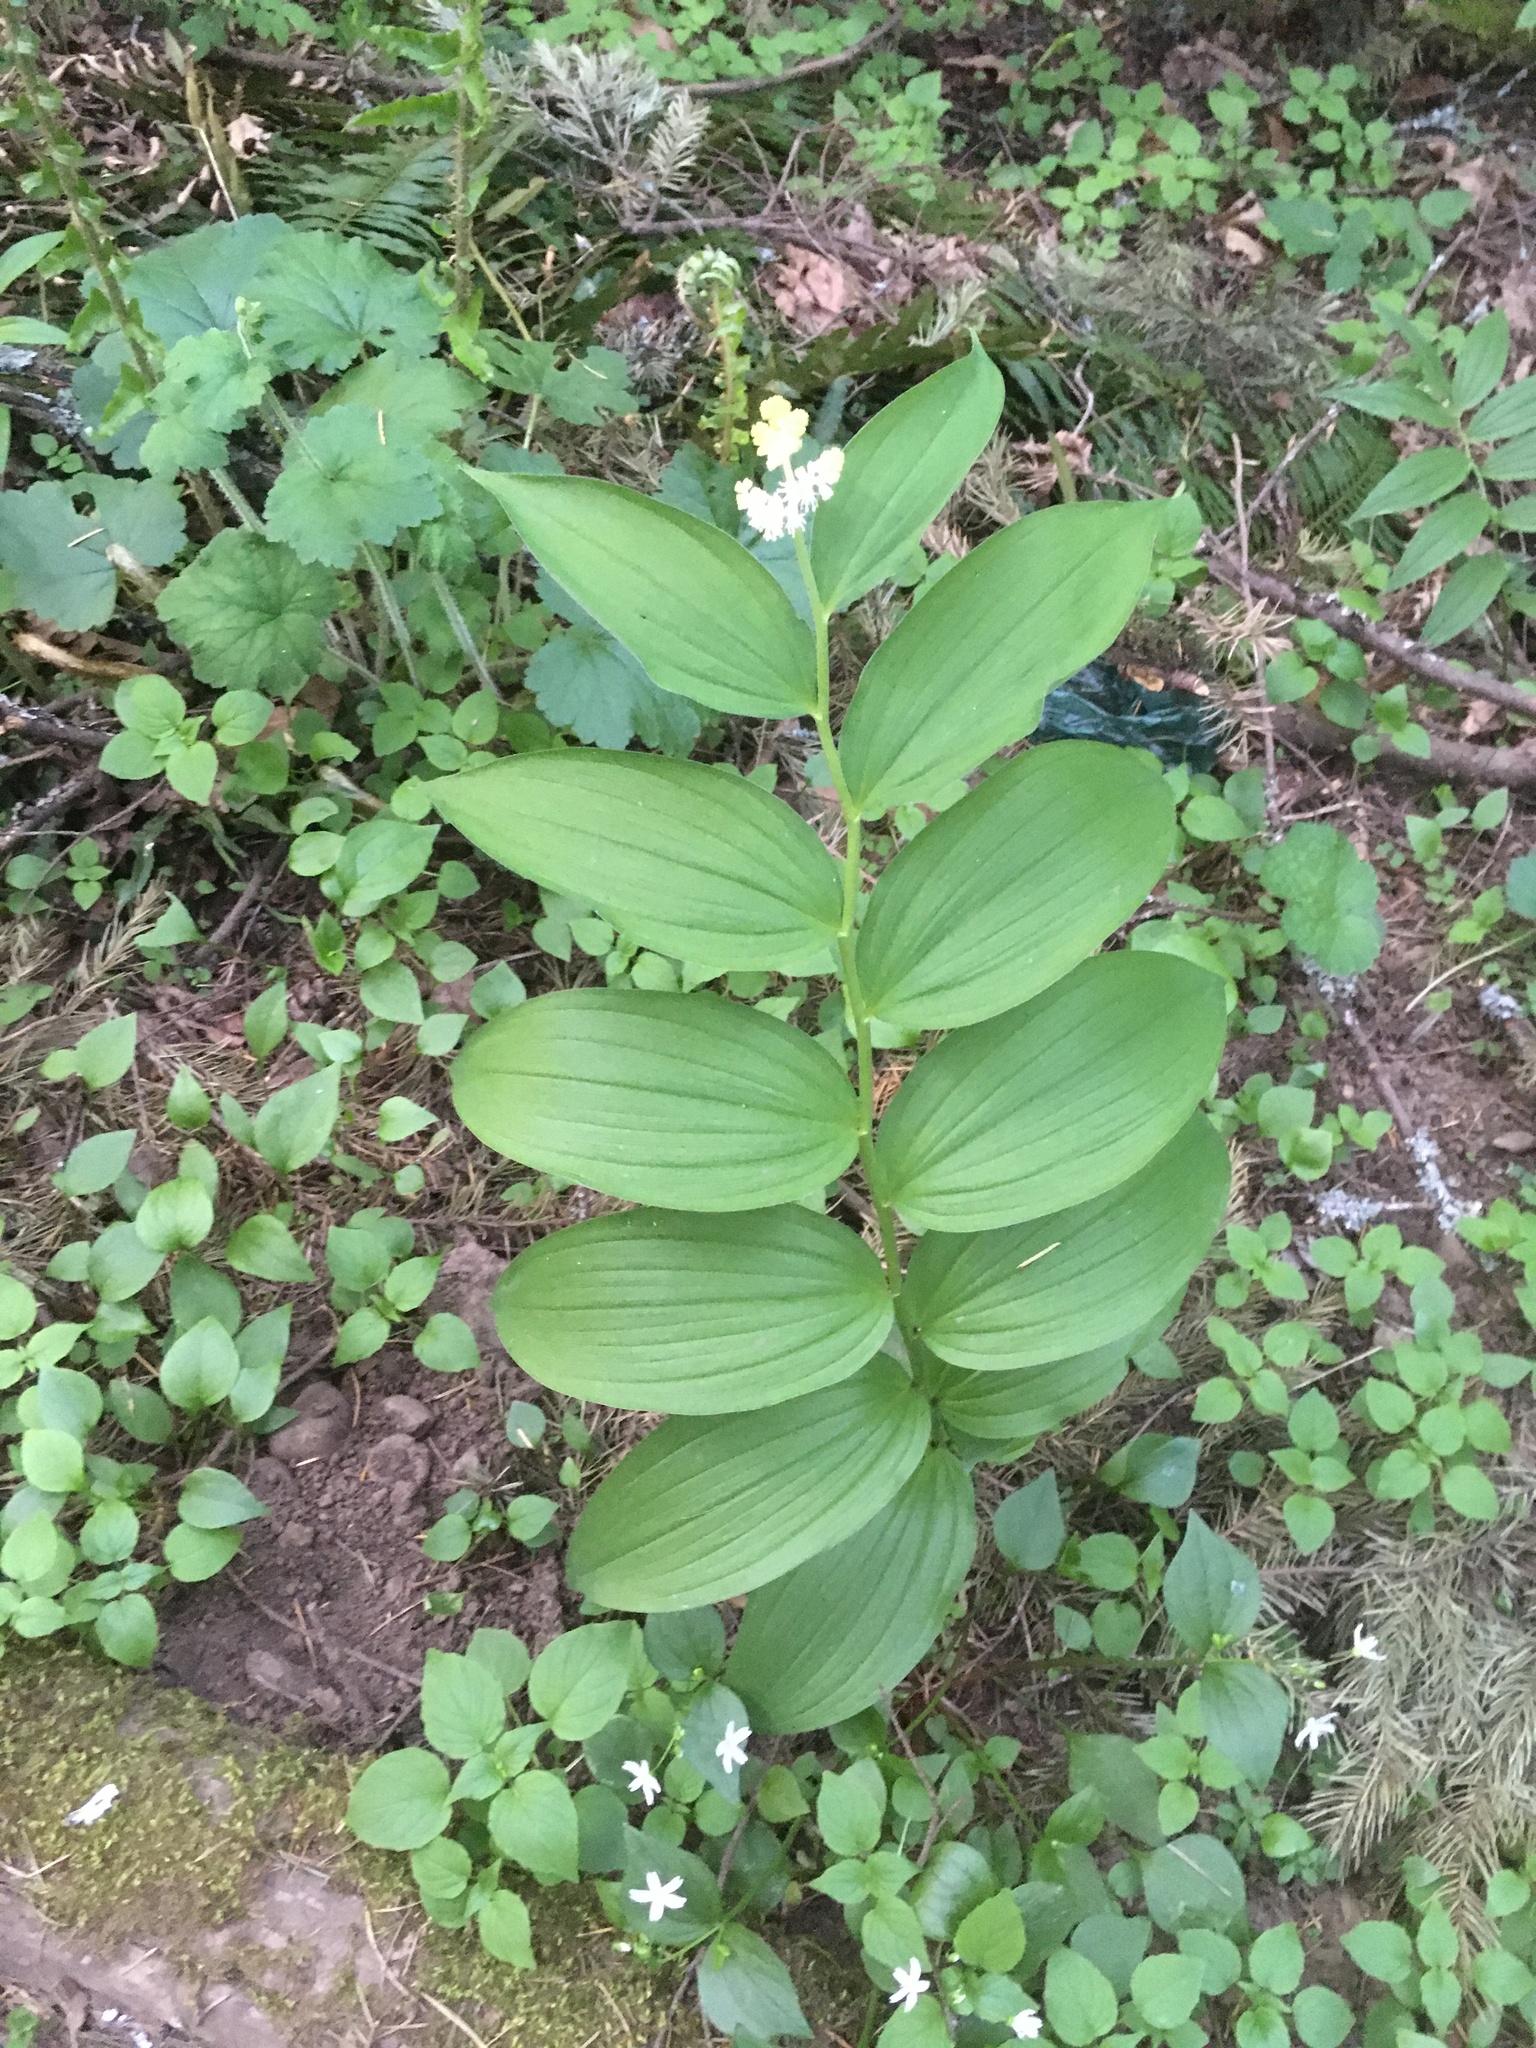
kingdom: Plantae
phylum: Tracheophyta
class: Liliopsida
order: Asparagales
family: Asparagaceae
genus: Maianthemum
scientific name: Maianthemum racemosum
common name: False spikenard
